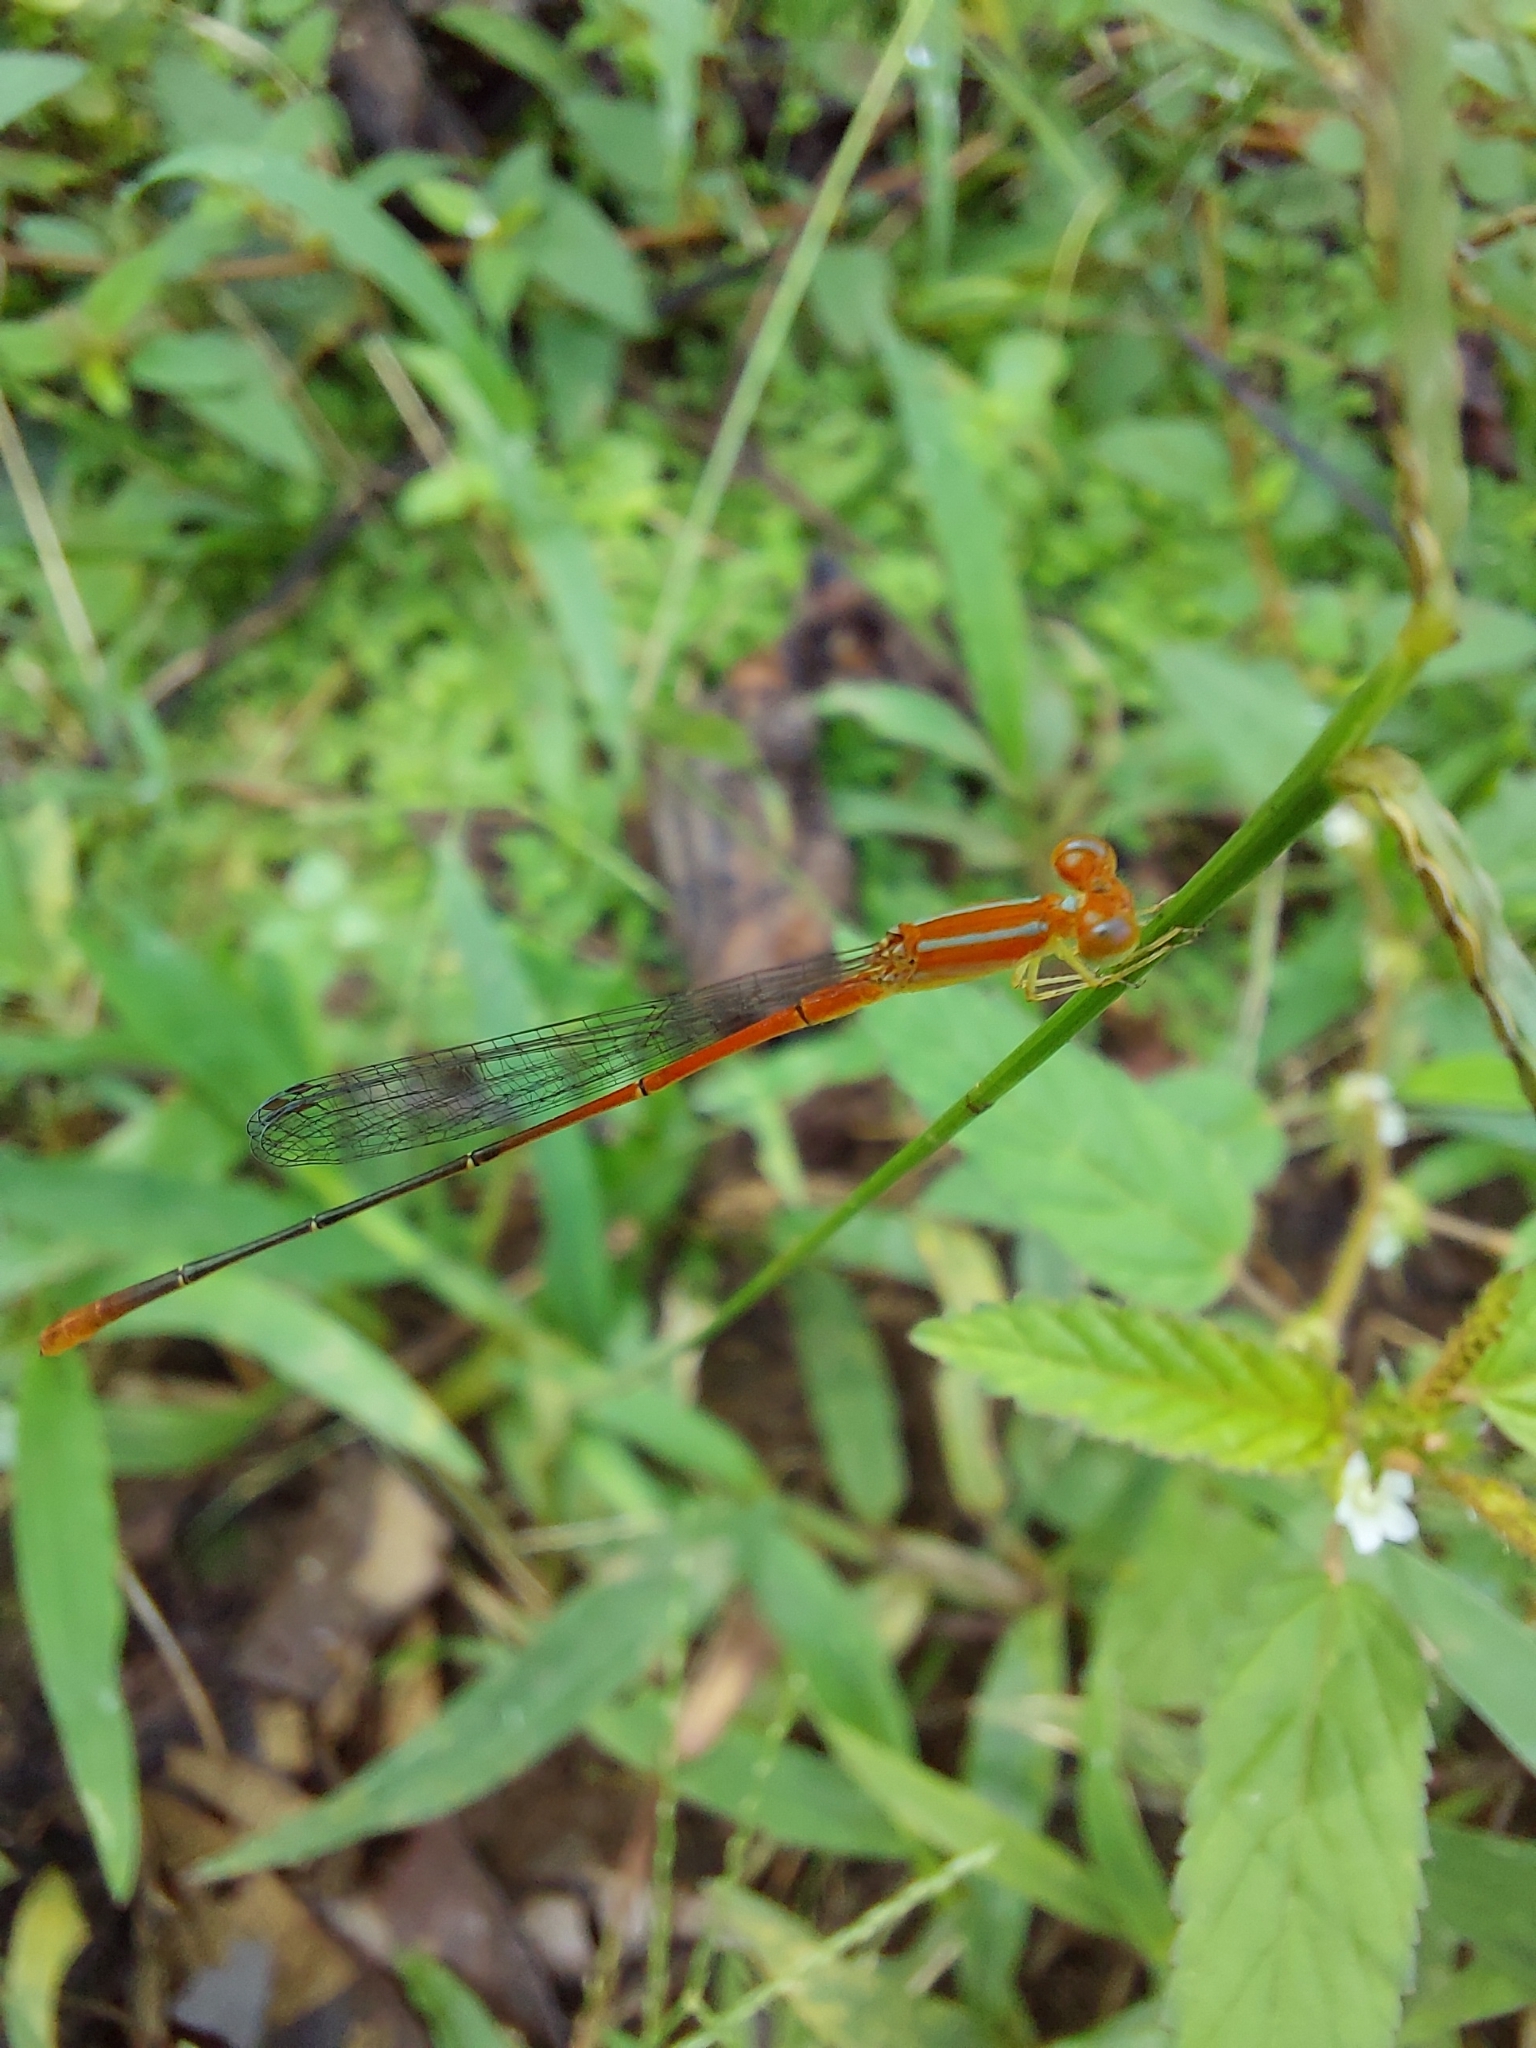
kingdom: Animalia
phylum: Arthropoda
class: Insecta
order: Odonata
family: Coenagrionidae
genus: Leptobasis
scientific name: Leptobasis vacillans
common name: Red-tipped swampdamsel
